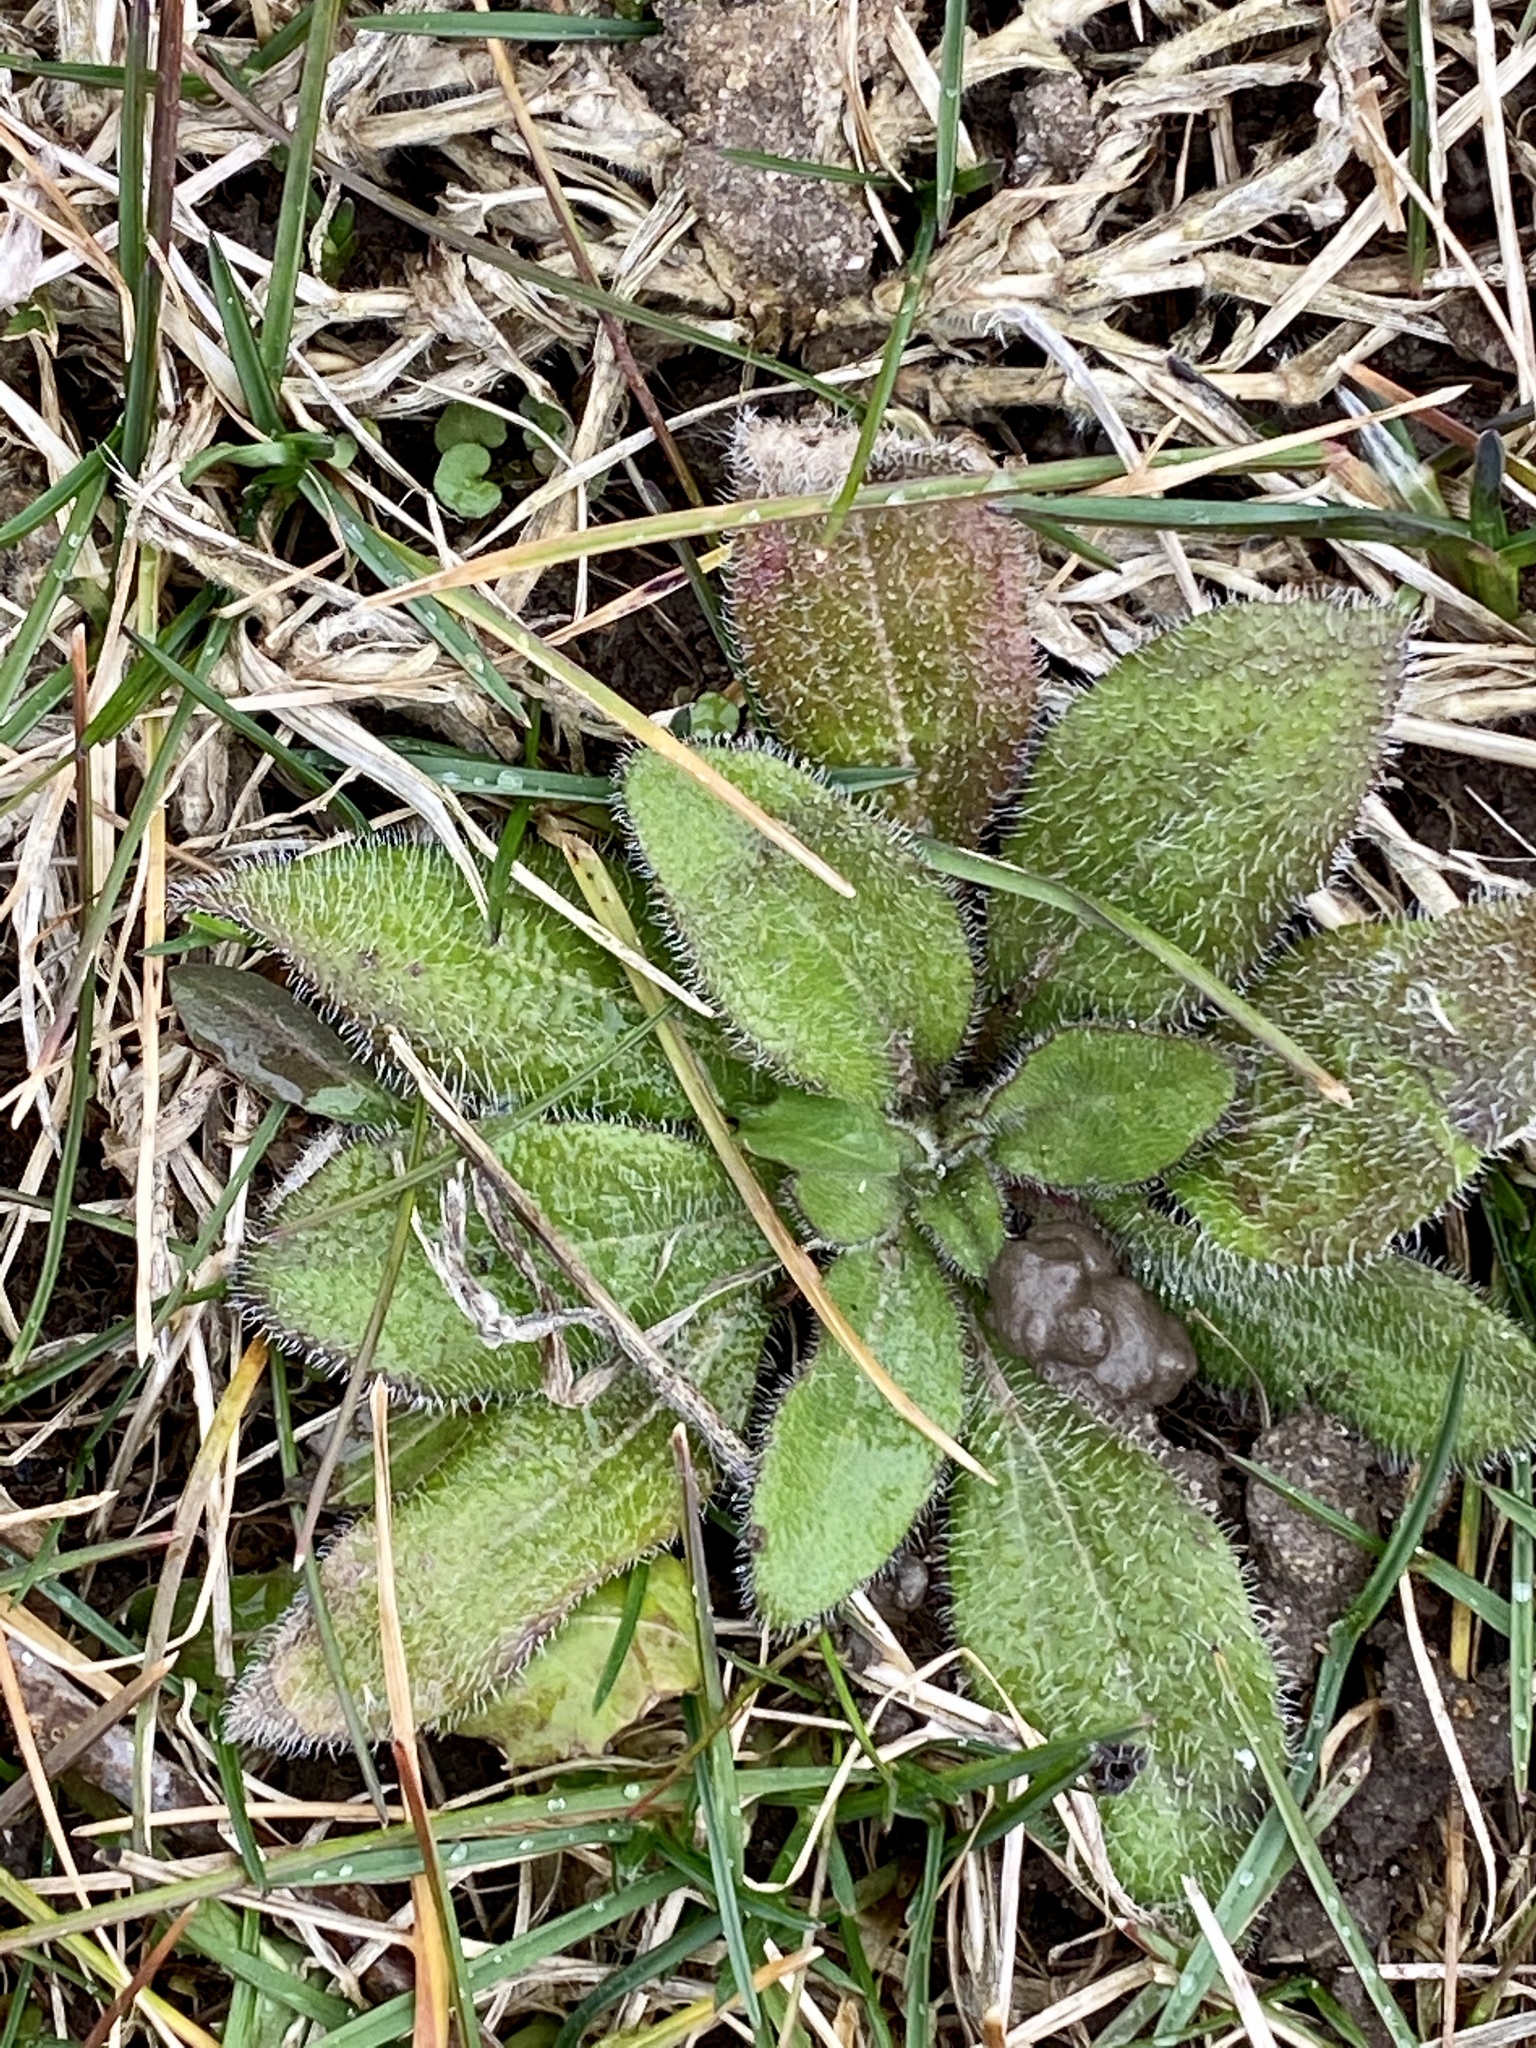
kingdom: Plantae
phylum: Tracheophyta
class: Magnoliopsida
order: Asterales
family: Asteraceae
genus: Rudbeckia
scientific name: Rudbeckia hirta
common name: Black-eyed-susan
